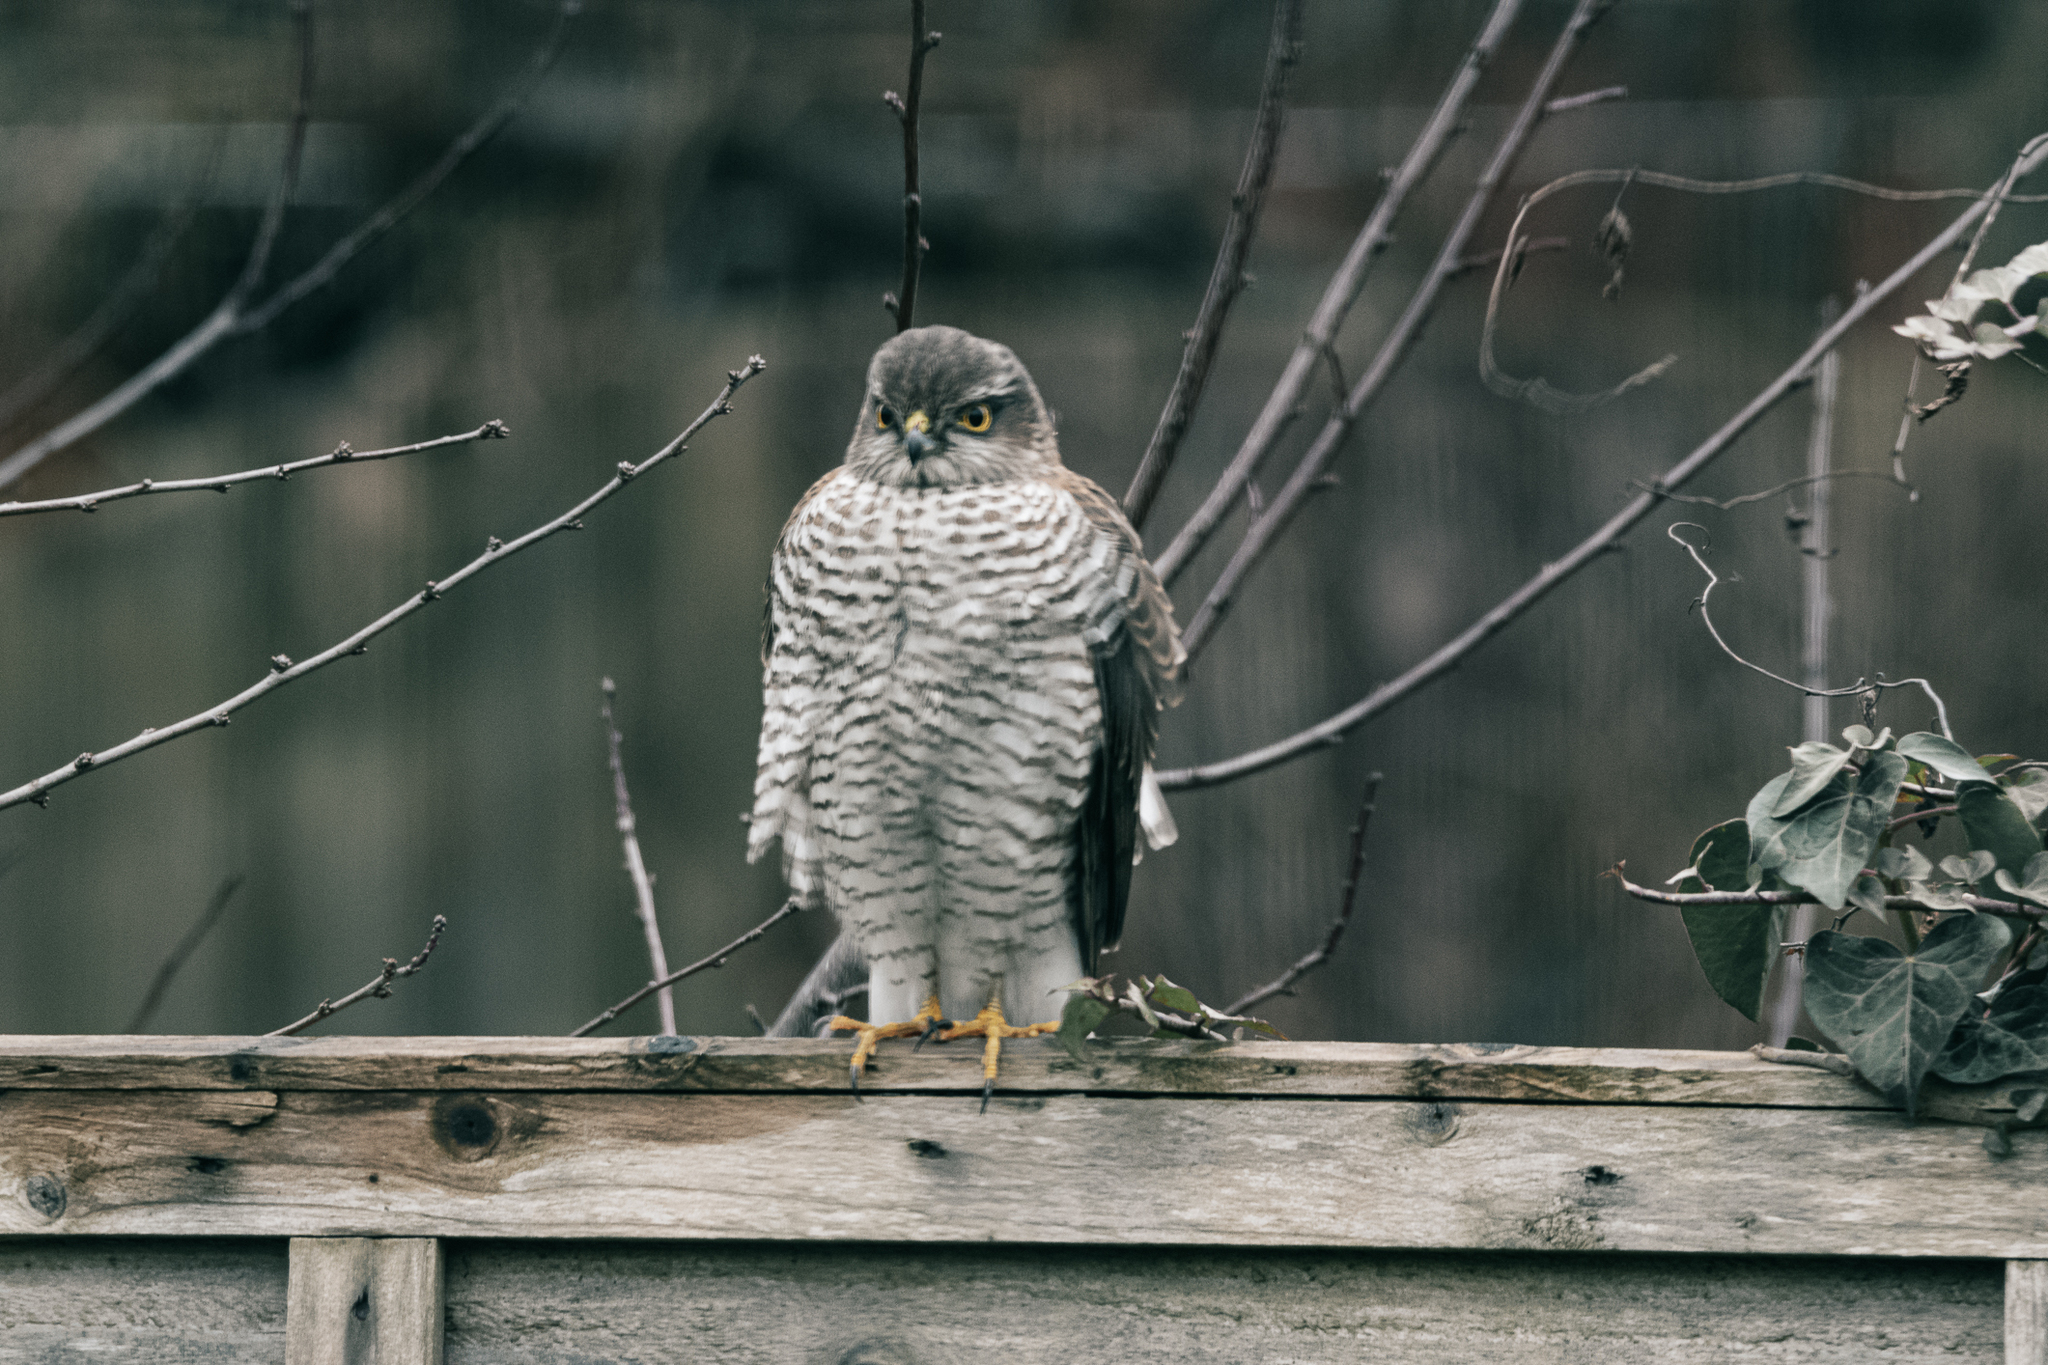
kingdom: Animalia
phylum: Chordata
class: Aves
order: Accipitriformes
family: Accipitridae
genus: Accipiter
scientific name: Accipiter nisus
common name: Eurasian sparrowhawk
